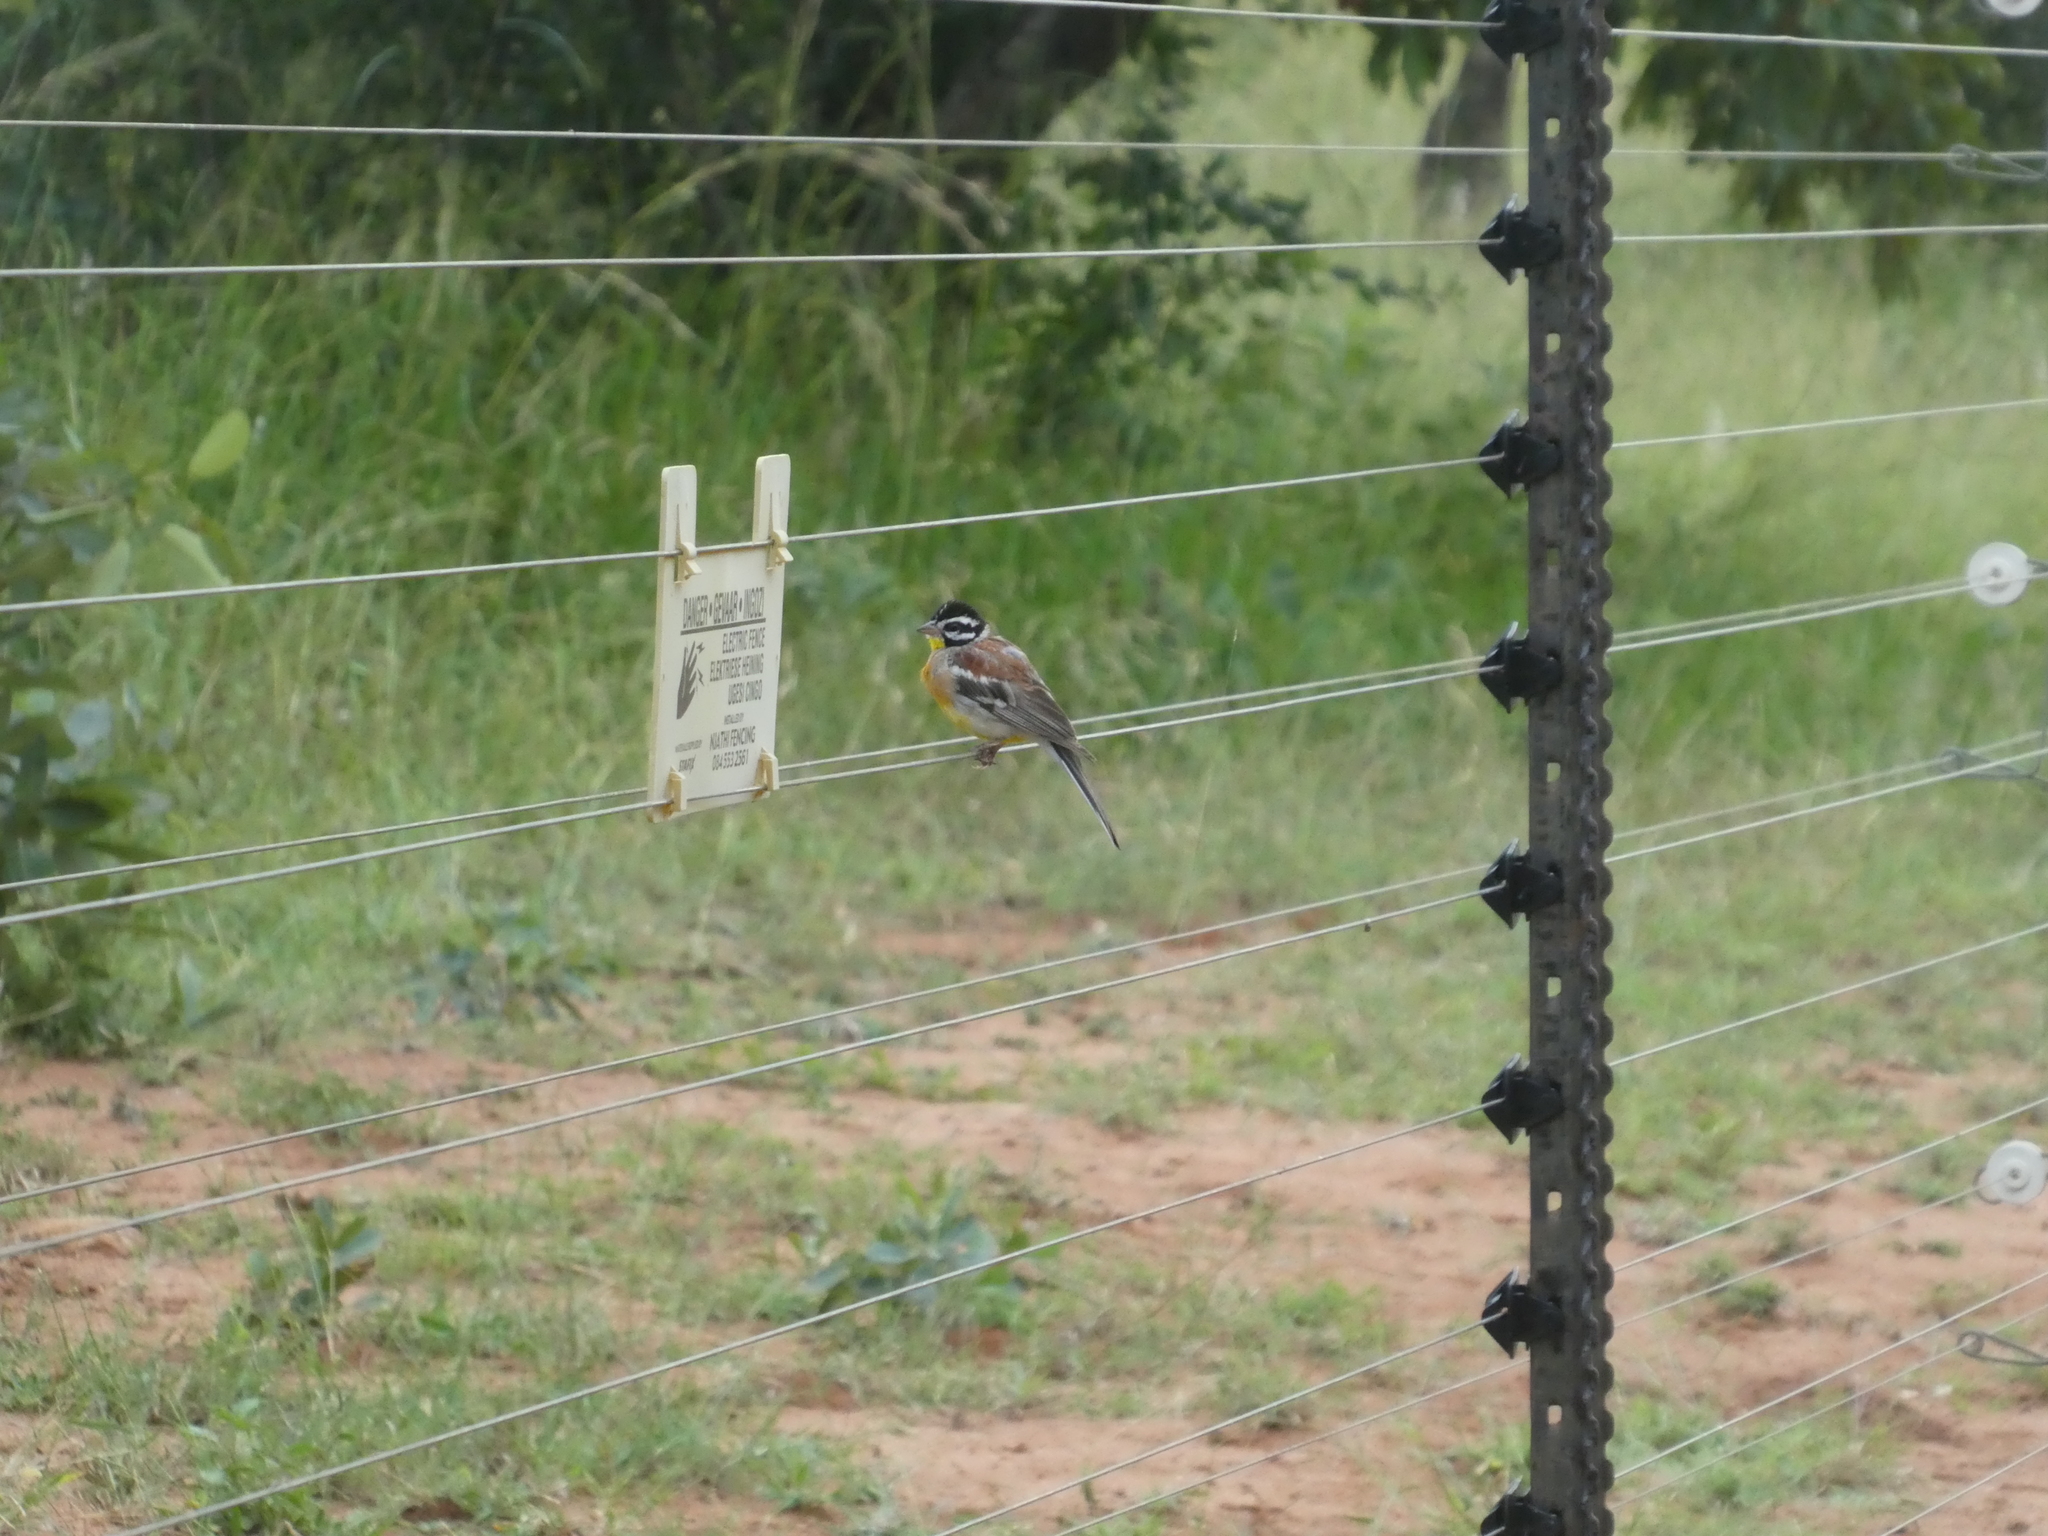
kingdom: Animalia
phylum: Chordata
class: Aves
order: Passeriformes
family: Emberizidae
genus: Emberiza
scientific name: Emberiza flaviventris
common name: Golden-breasted bunting
